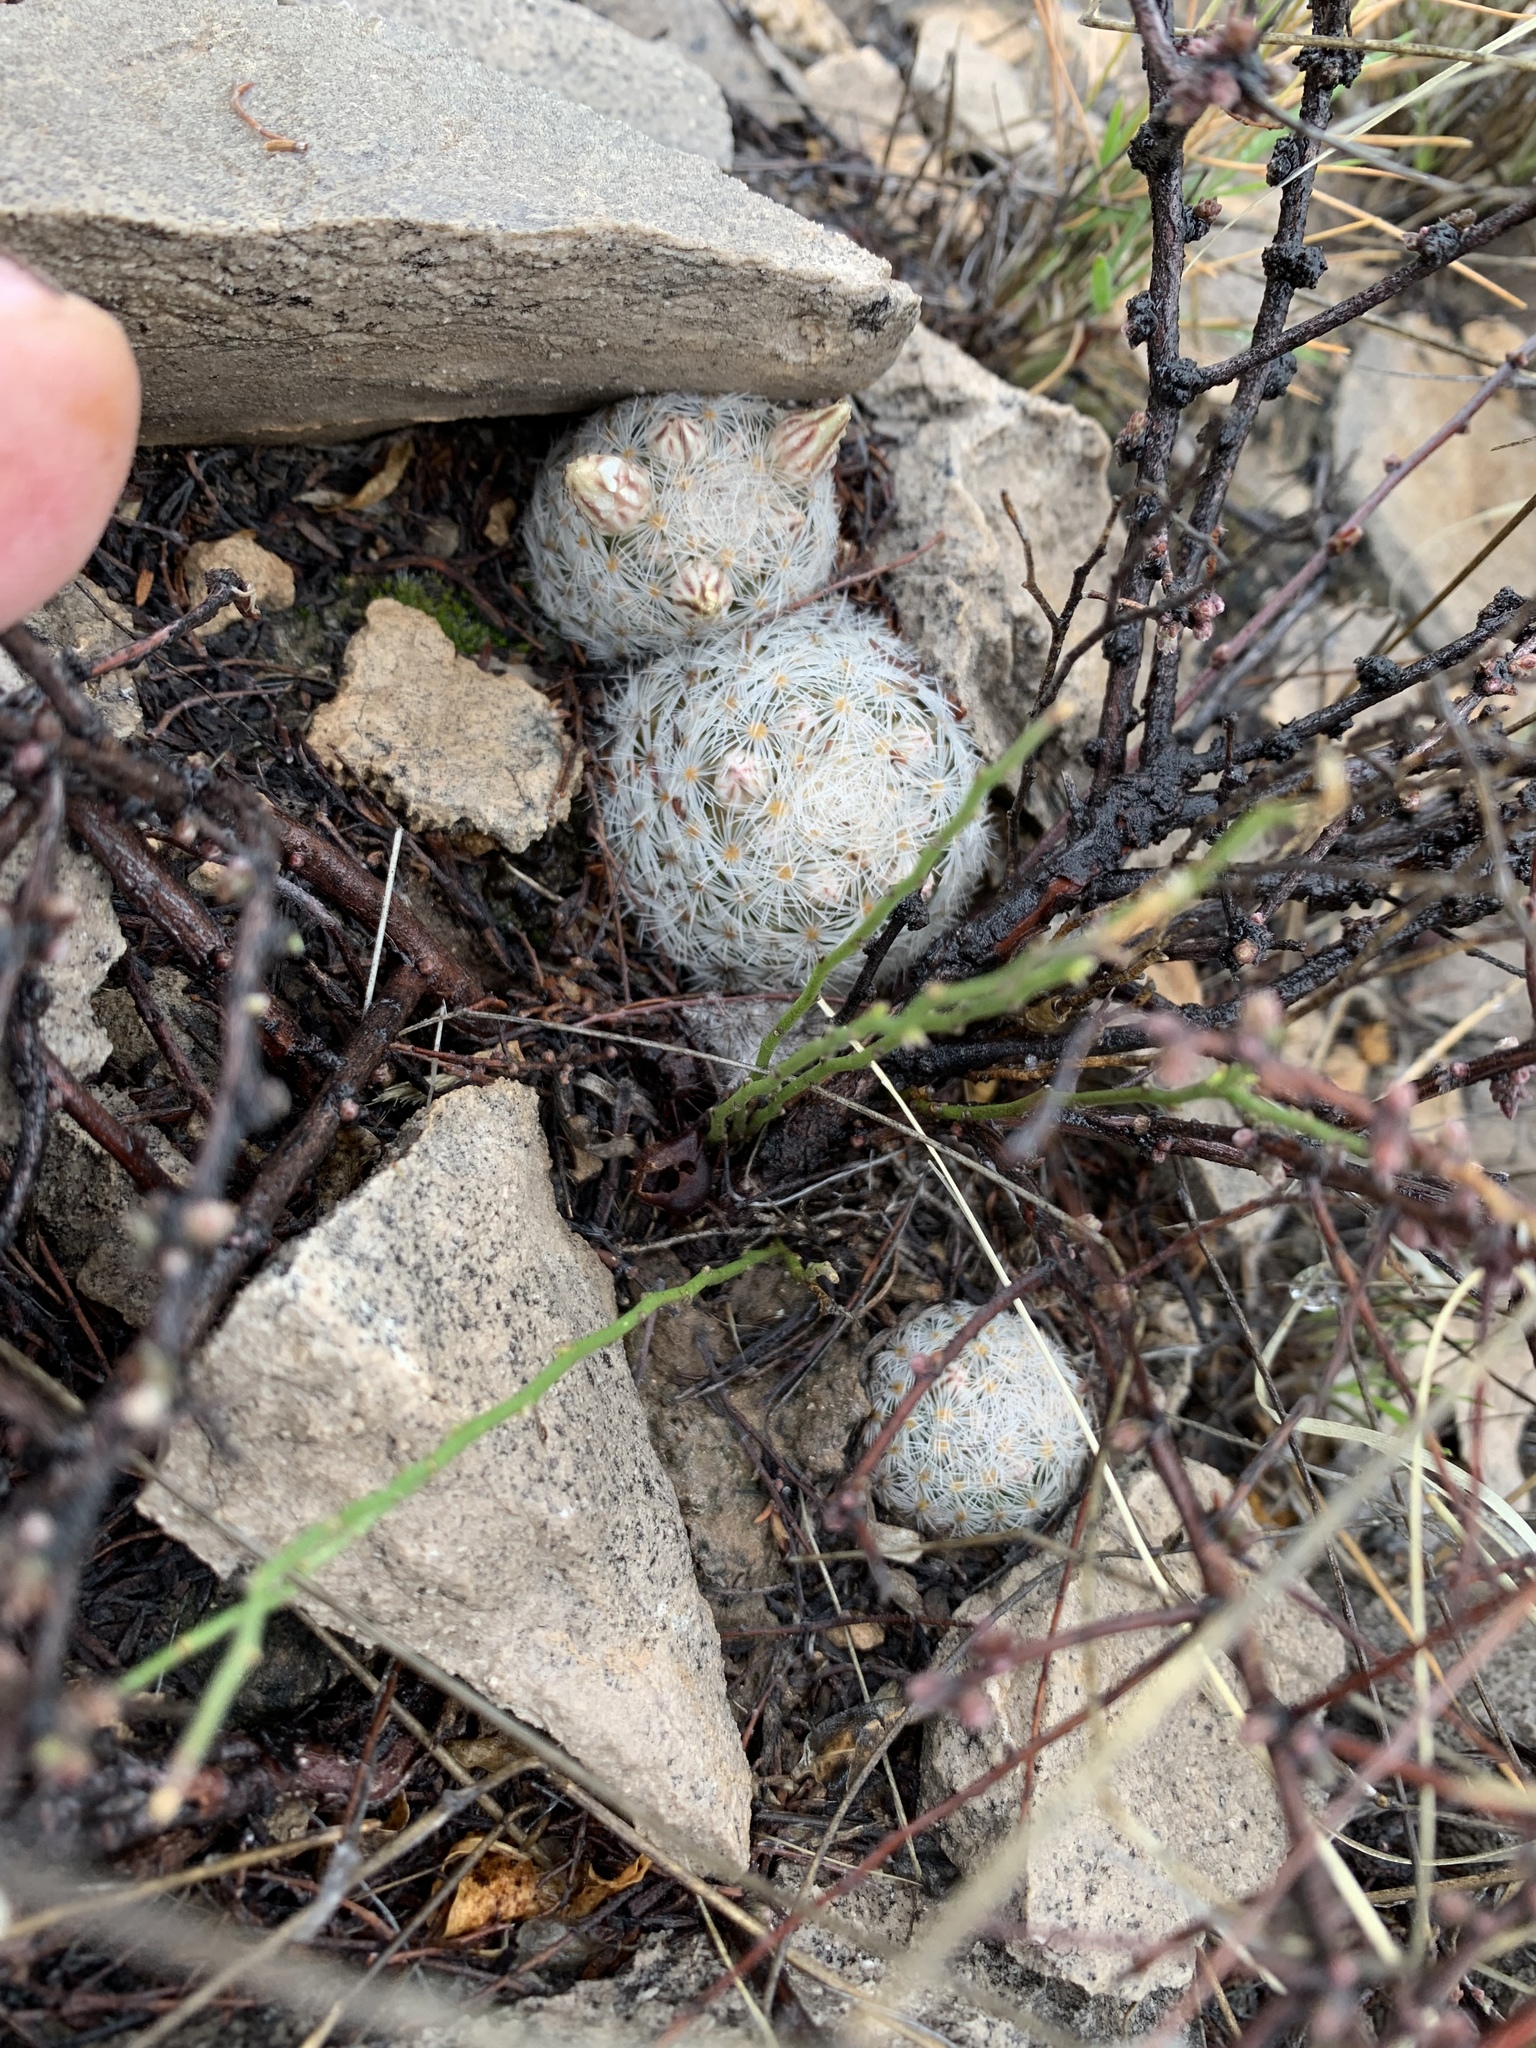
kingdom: Plantae
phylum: Tracheophyta
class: Magnoliopsida
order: Caryophyllales
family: Cactaceae
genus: Mammillaria
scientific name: Mammillaria lasiacantha
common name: Lace-spine nipple cactus
